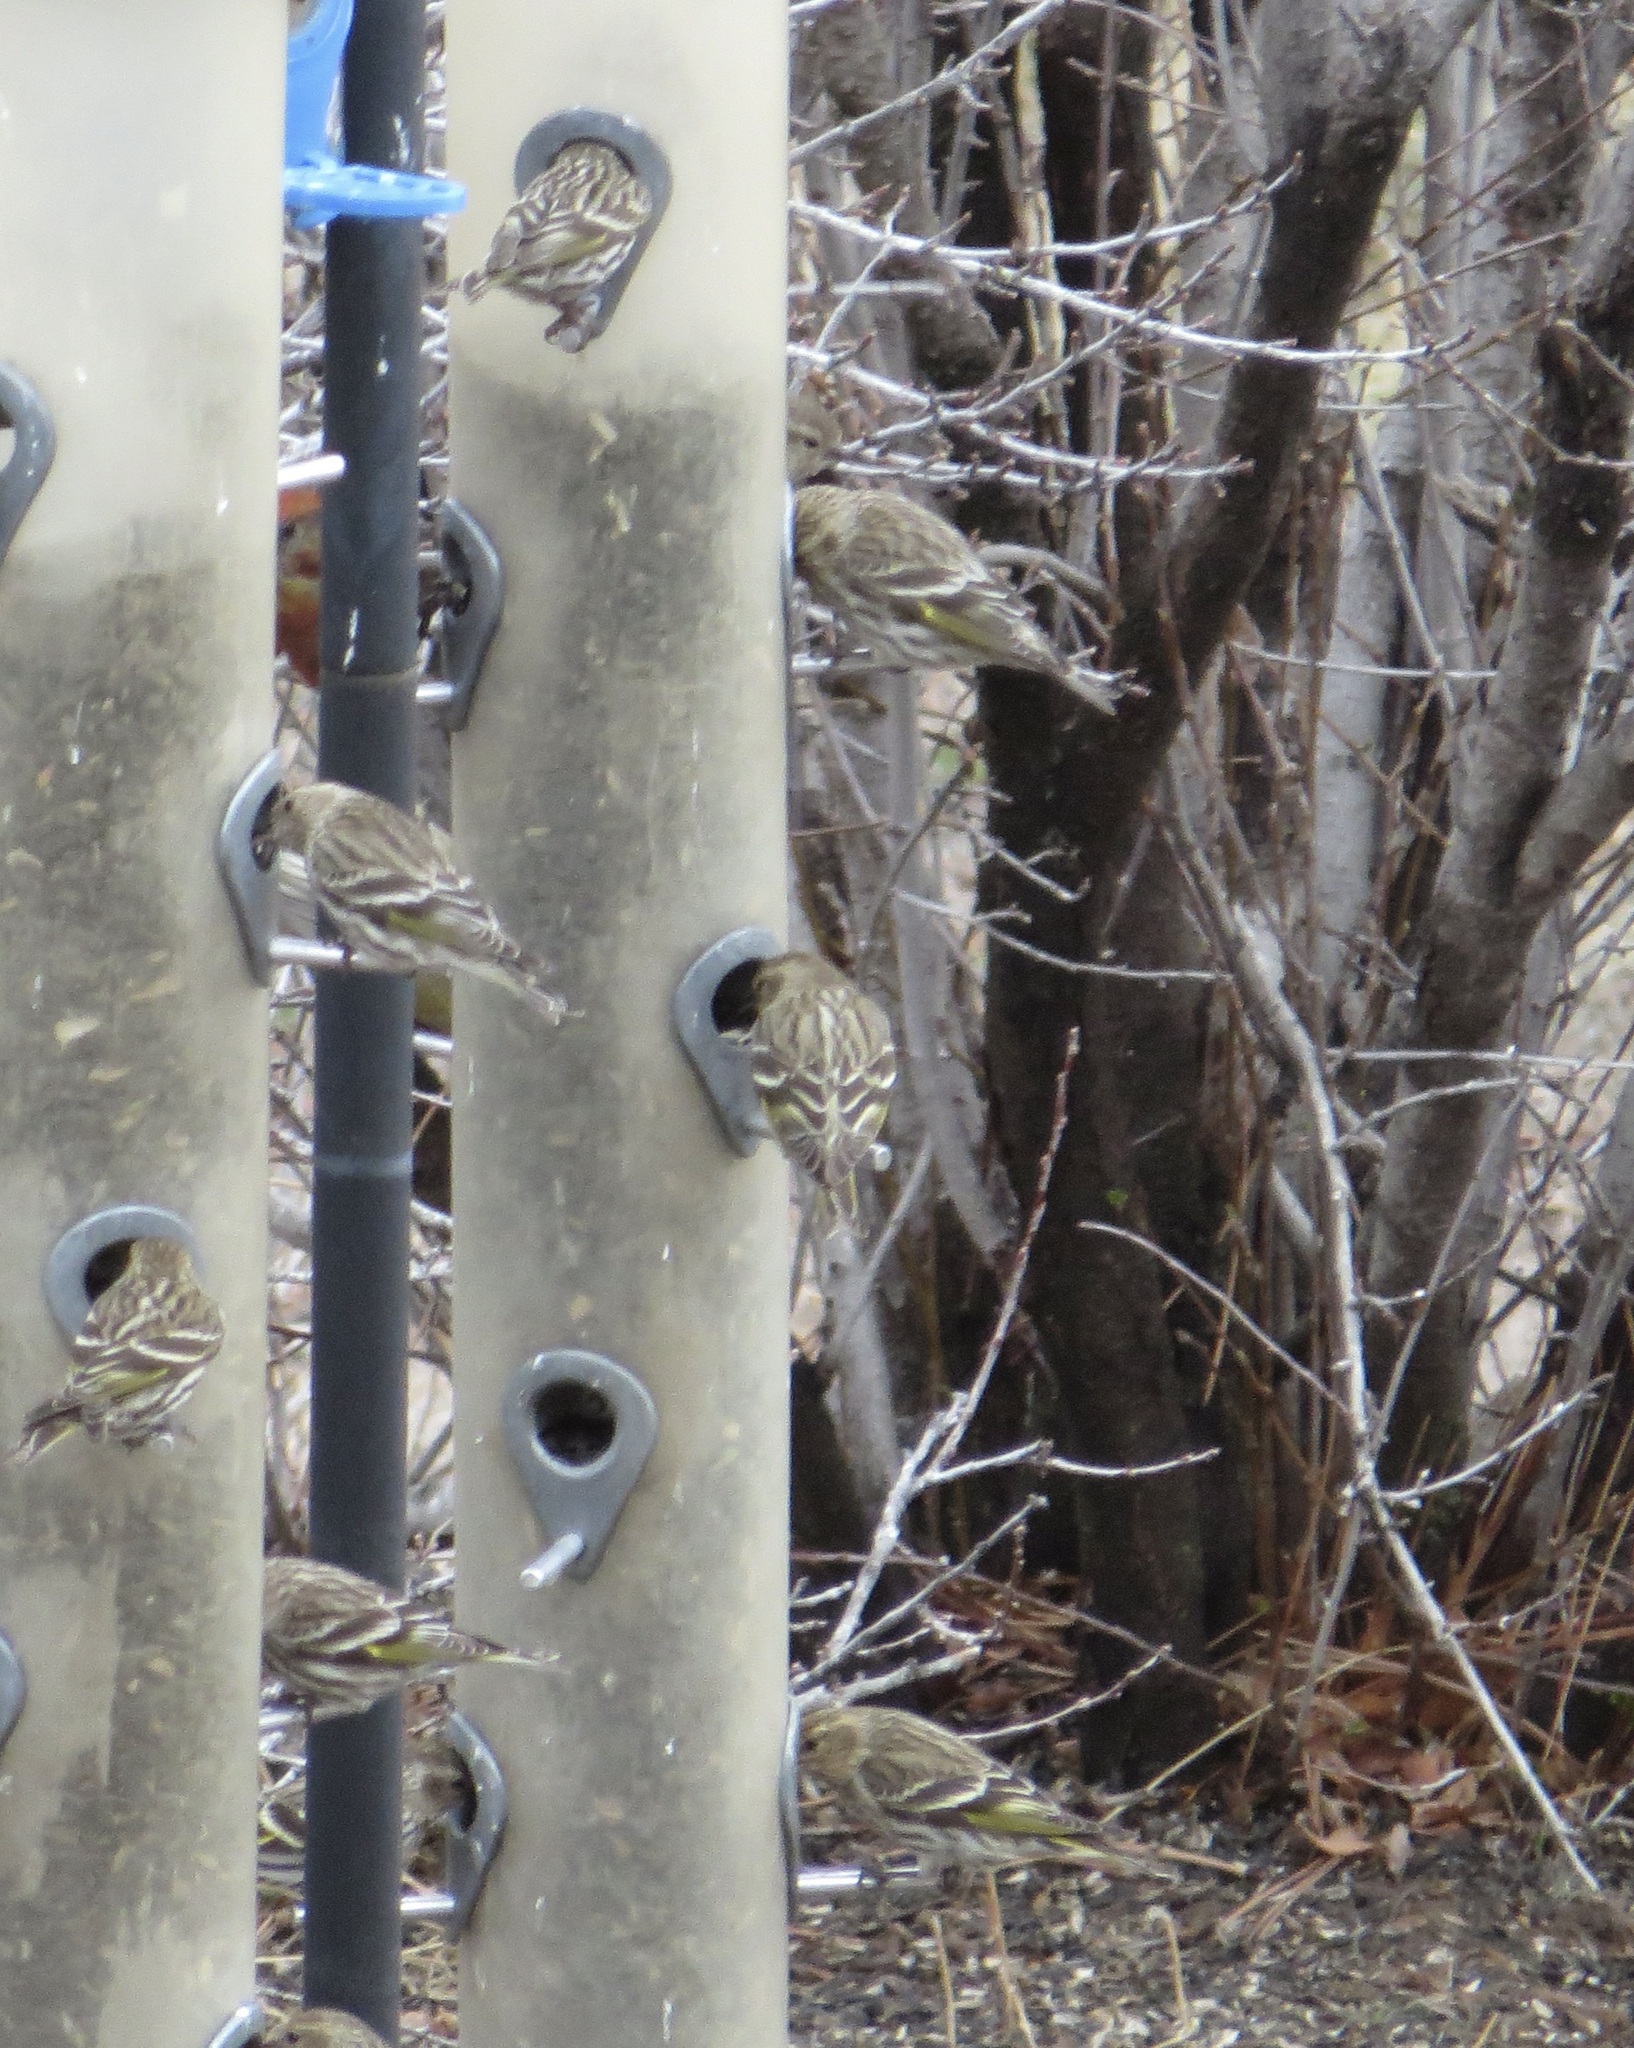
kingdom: Animalia
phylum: Chordata
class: Aves
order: Passeriformes
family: Fringillidae
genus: Spinus
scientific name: Spinus pinus
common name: Pine siskin
